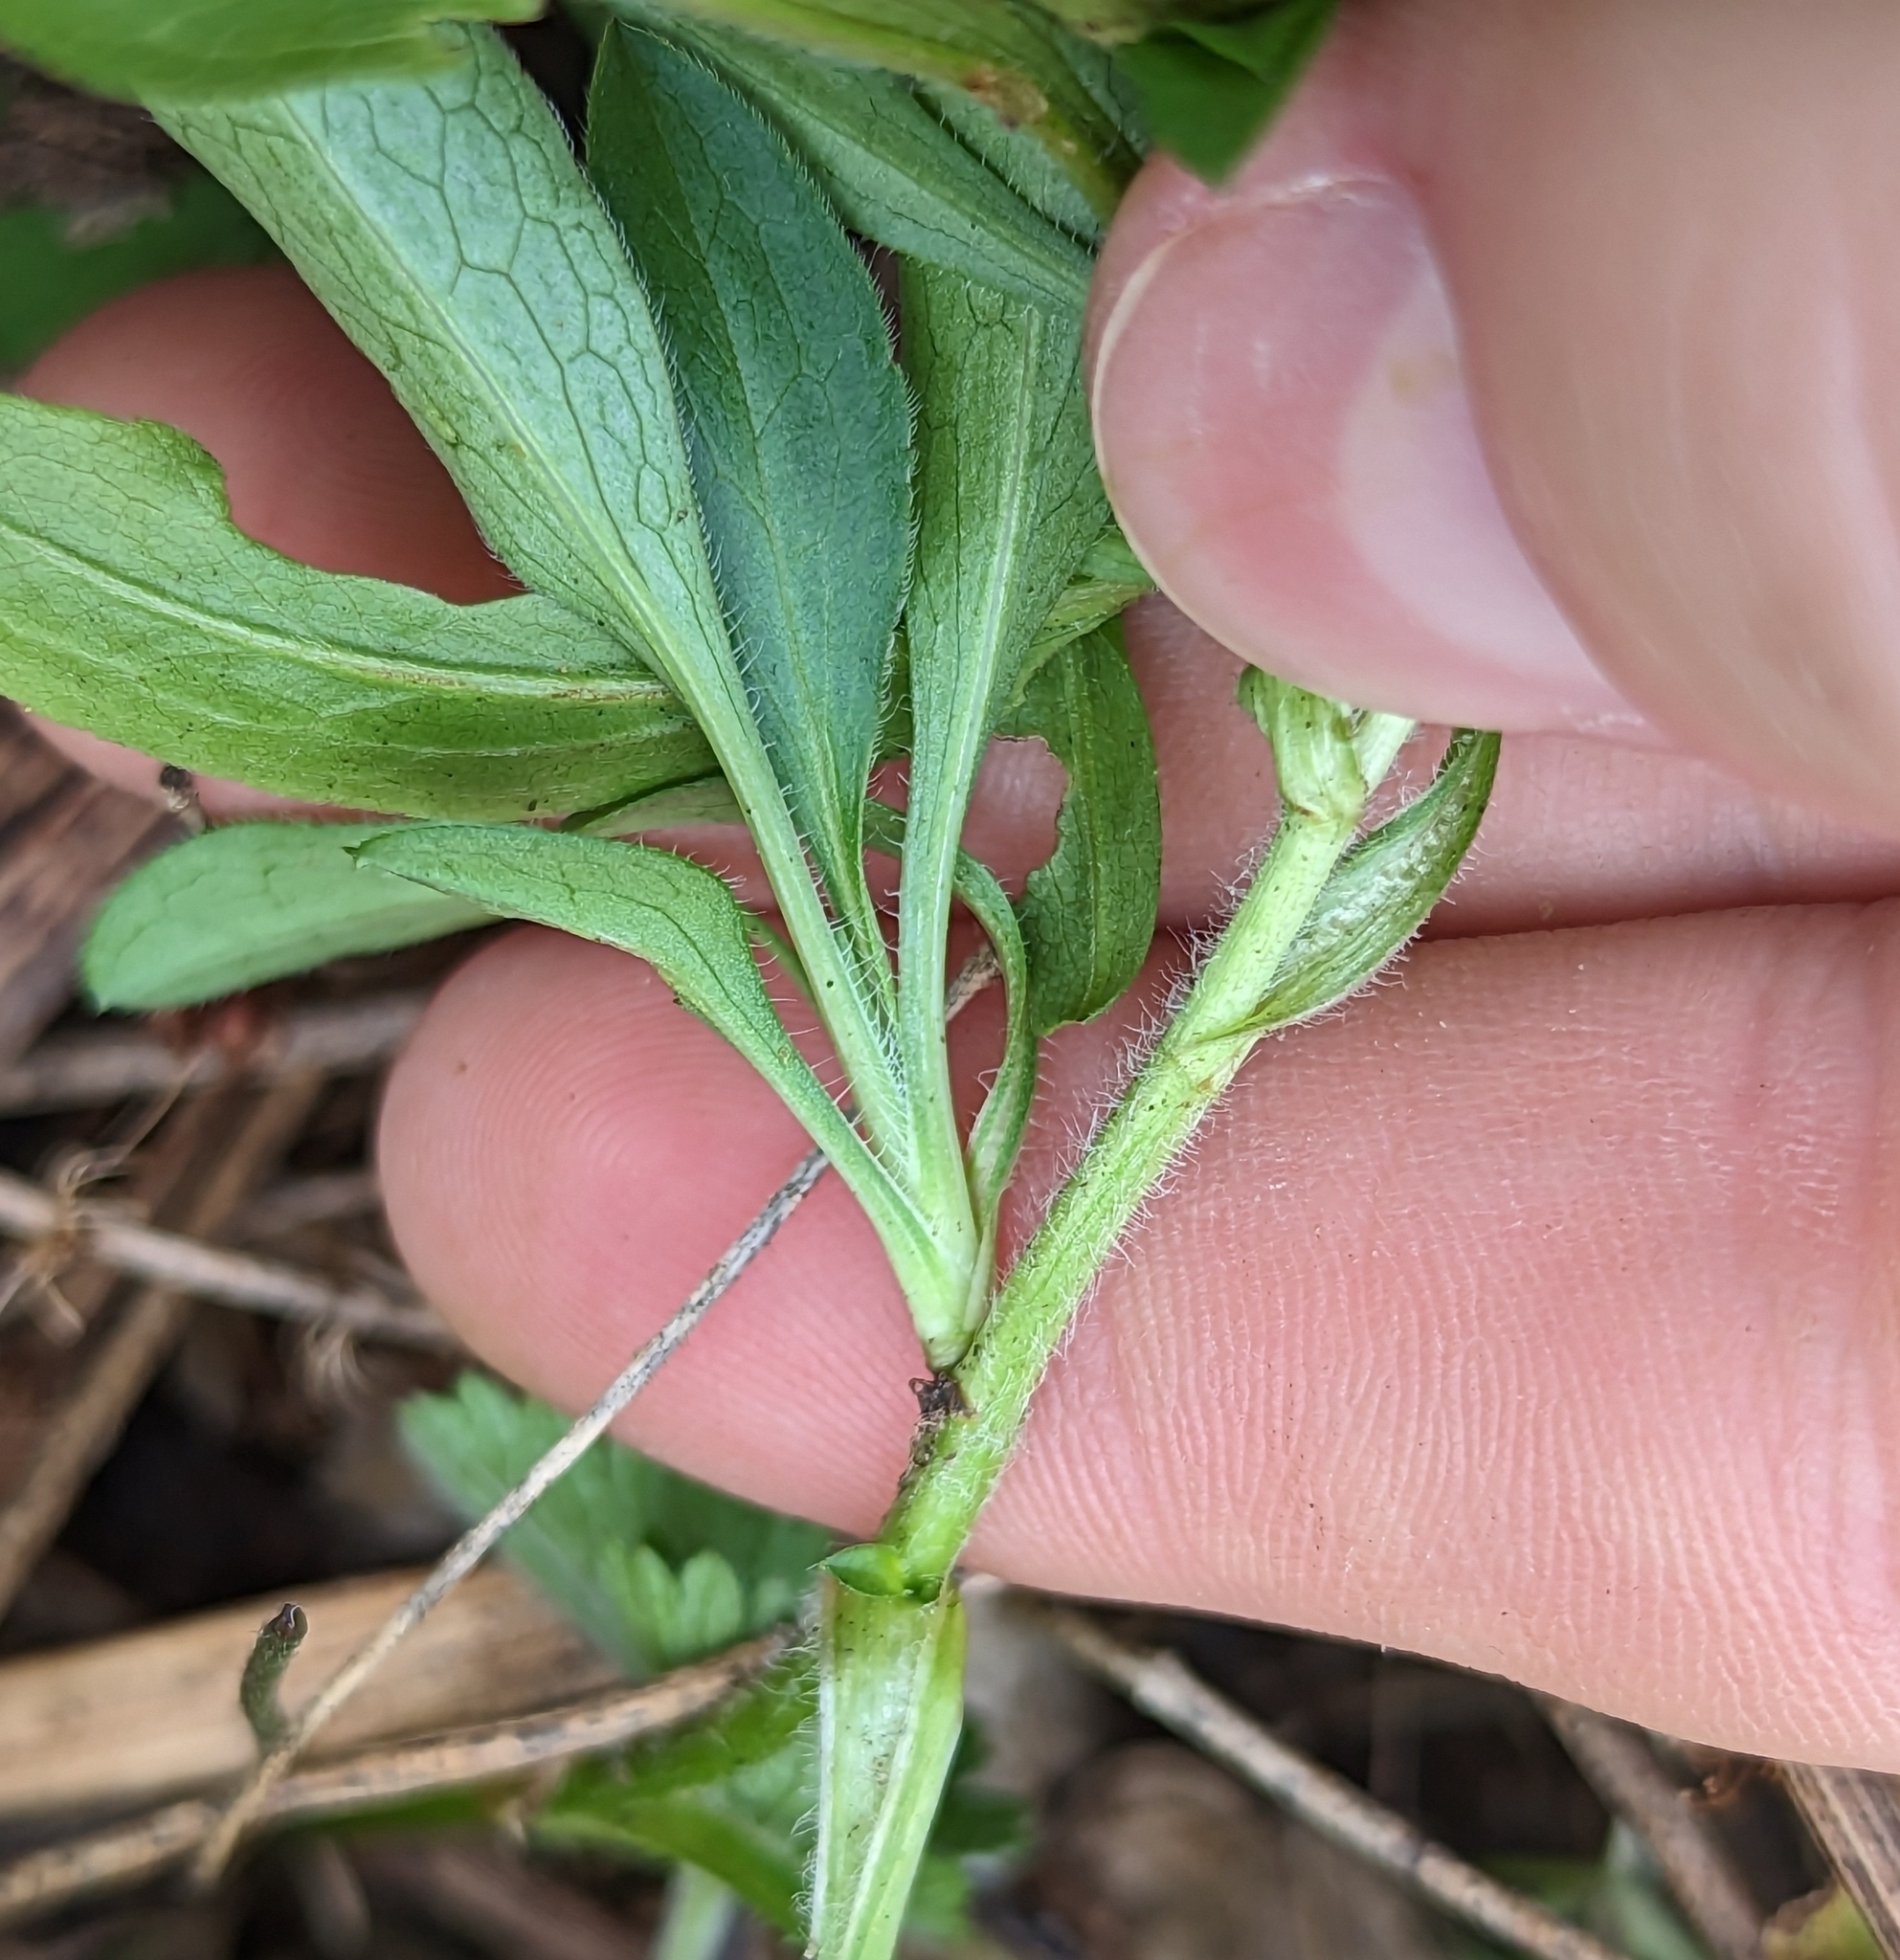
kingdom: Plantae
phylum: Tracheophyta
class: Magnoliopsida
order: Asterales
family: Asteraceae
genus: Symphyotrichum
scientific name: Symphyotrichum pilosum
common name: Awl aster
